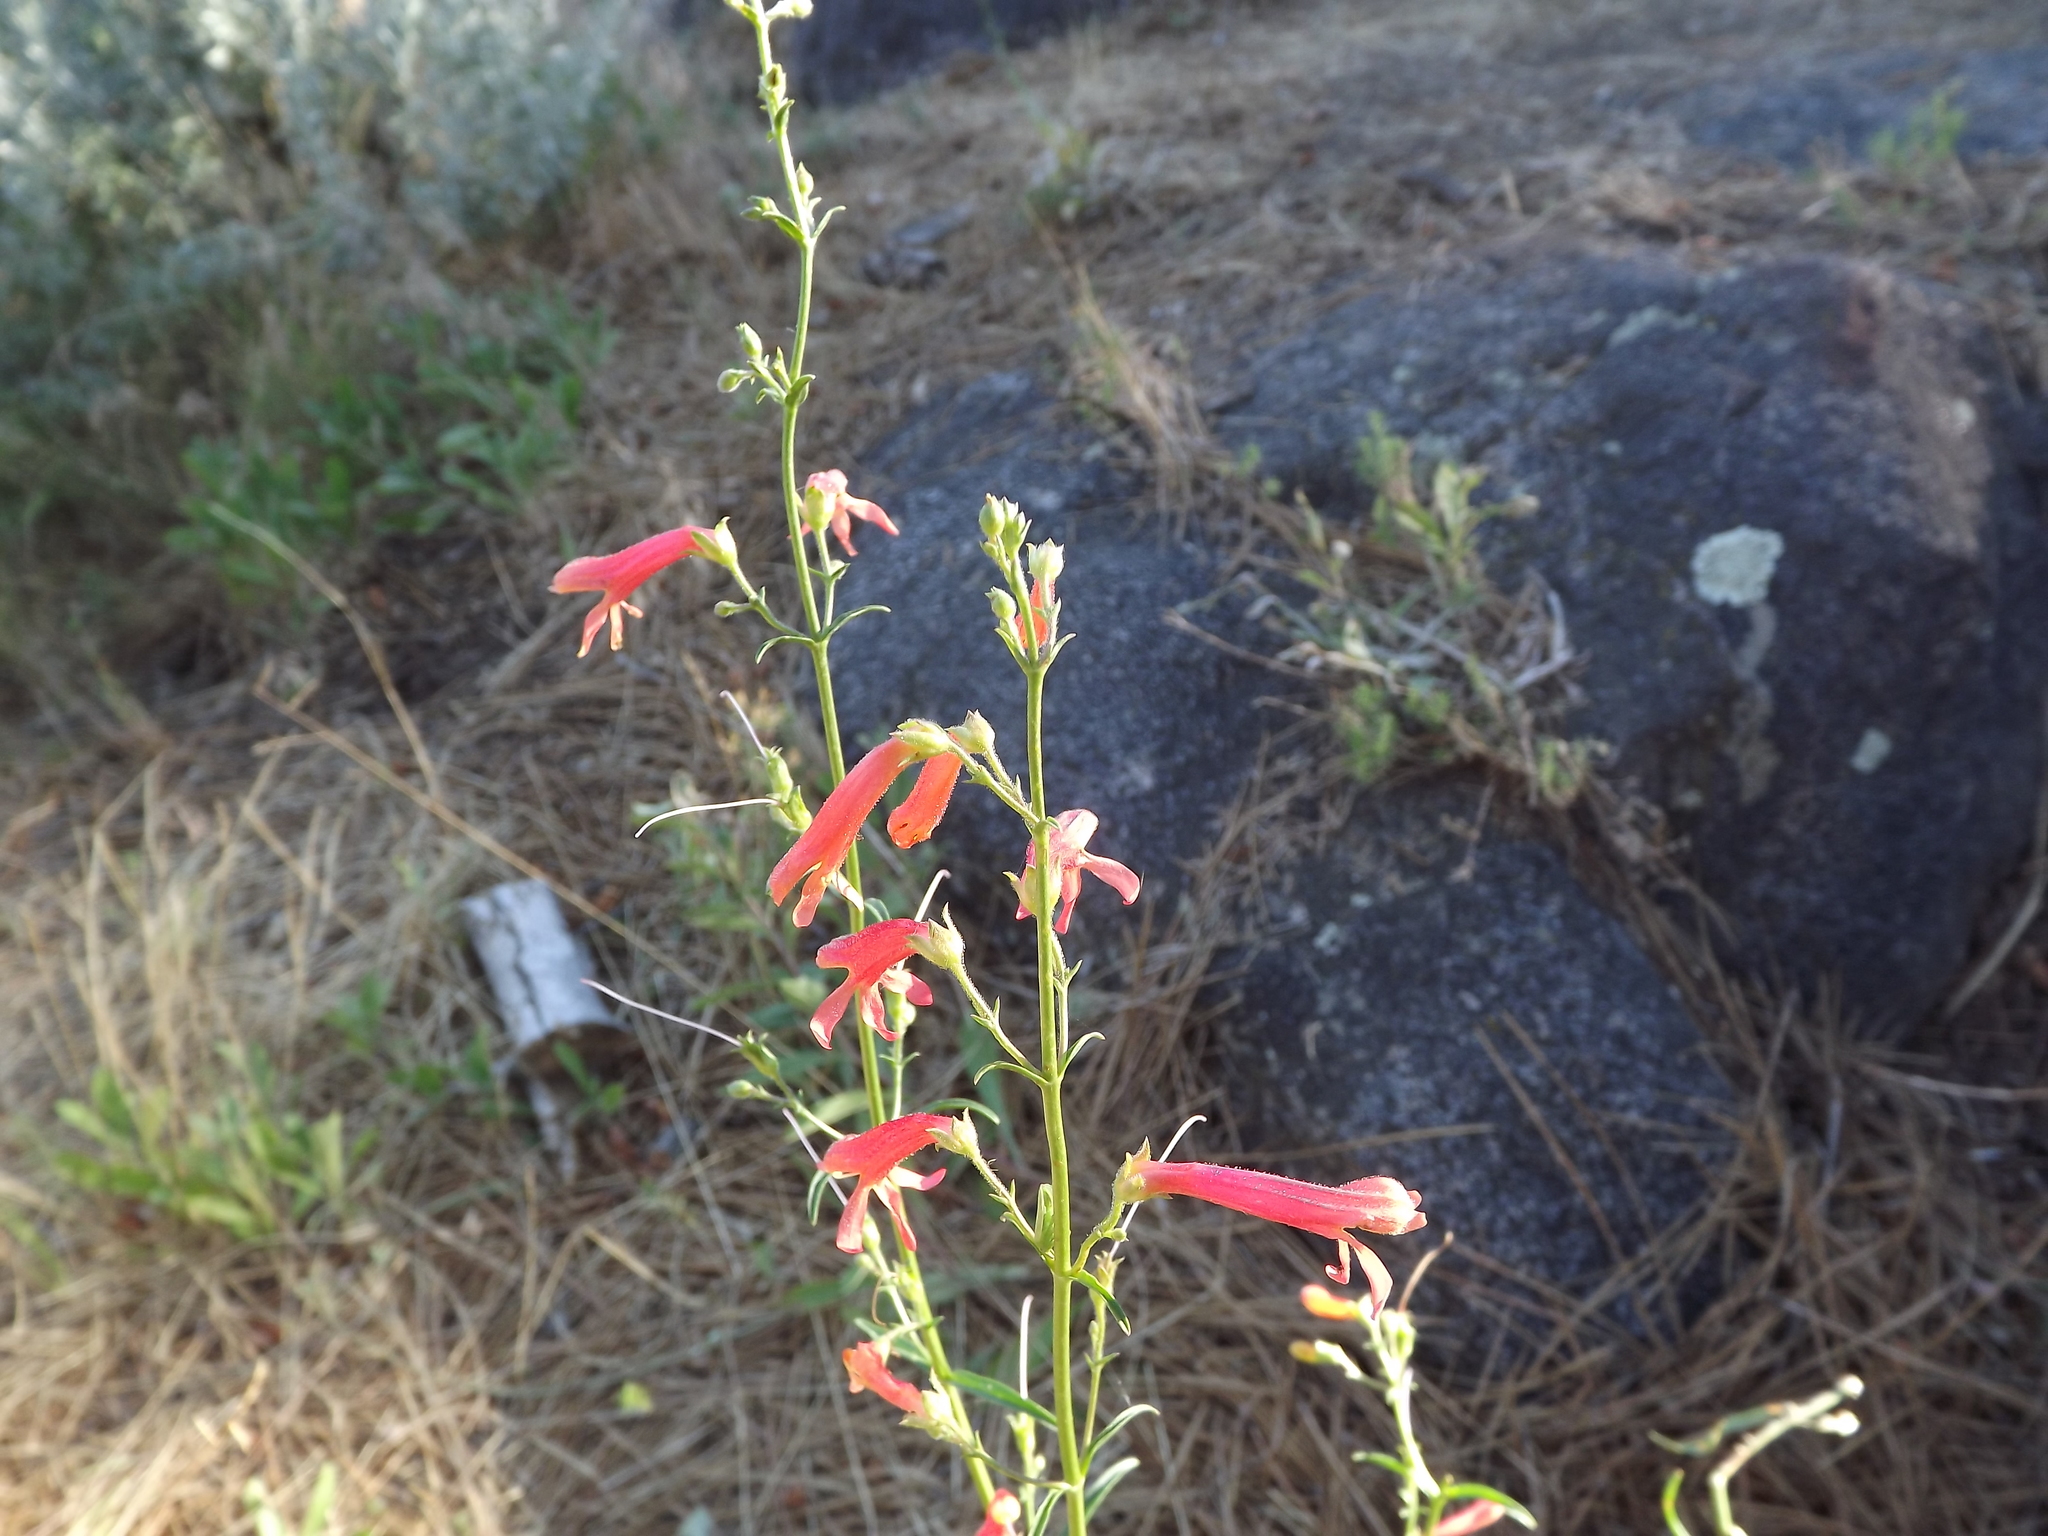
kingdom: Plantae
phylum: Tracheophyta
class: Magnoliopsida
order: Lamiales
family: Plantaginaceae
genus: Penstemon
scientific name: Penstemon rostriflorus
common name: Bridges's penstemon
